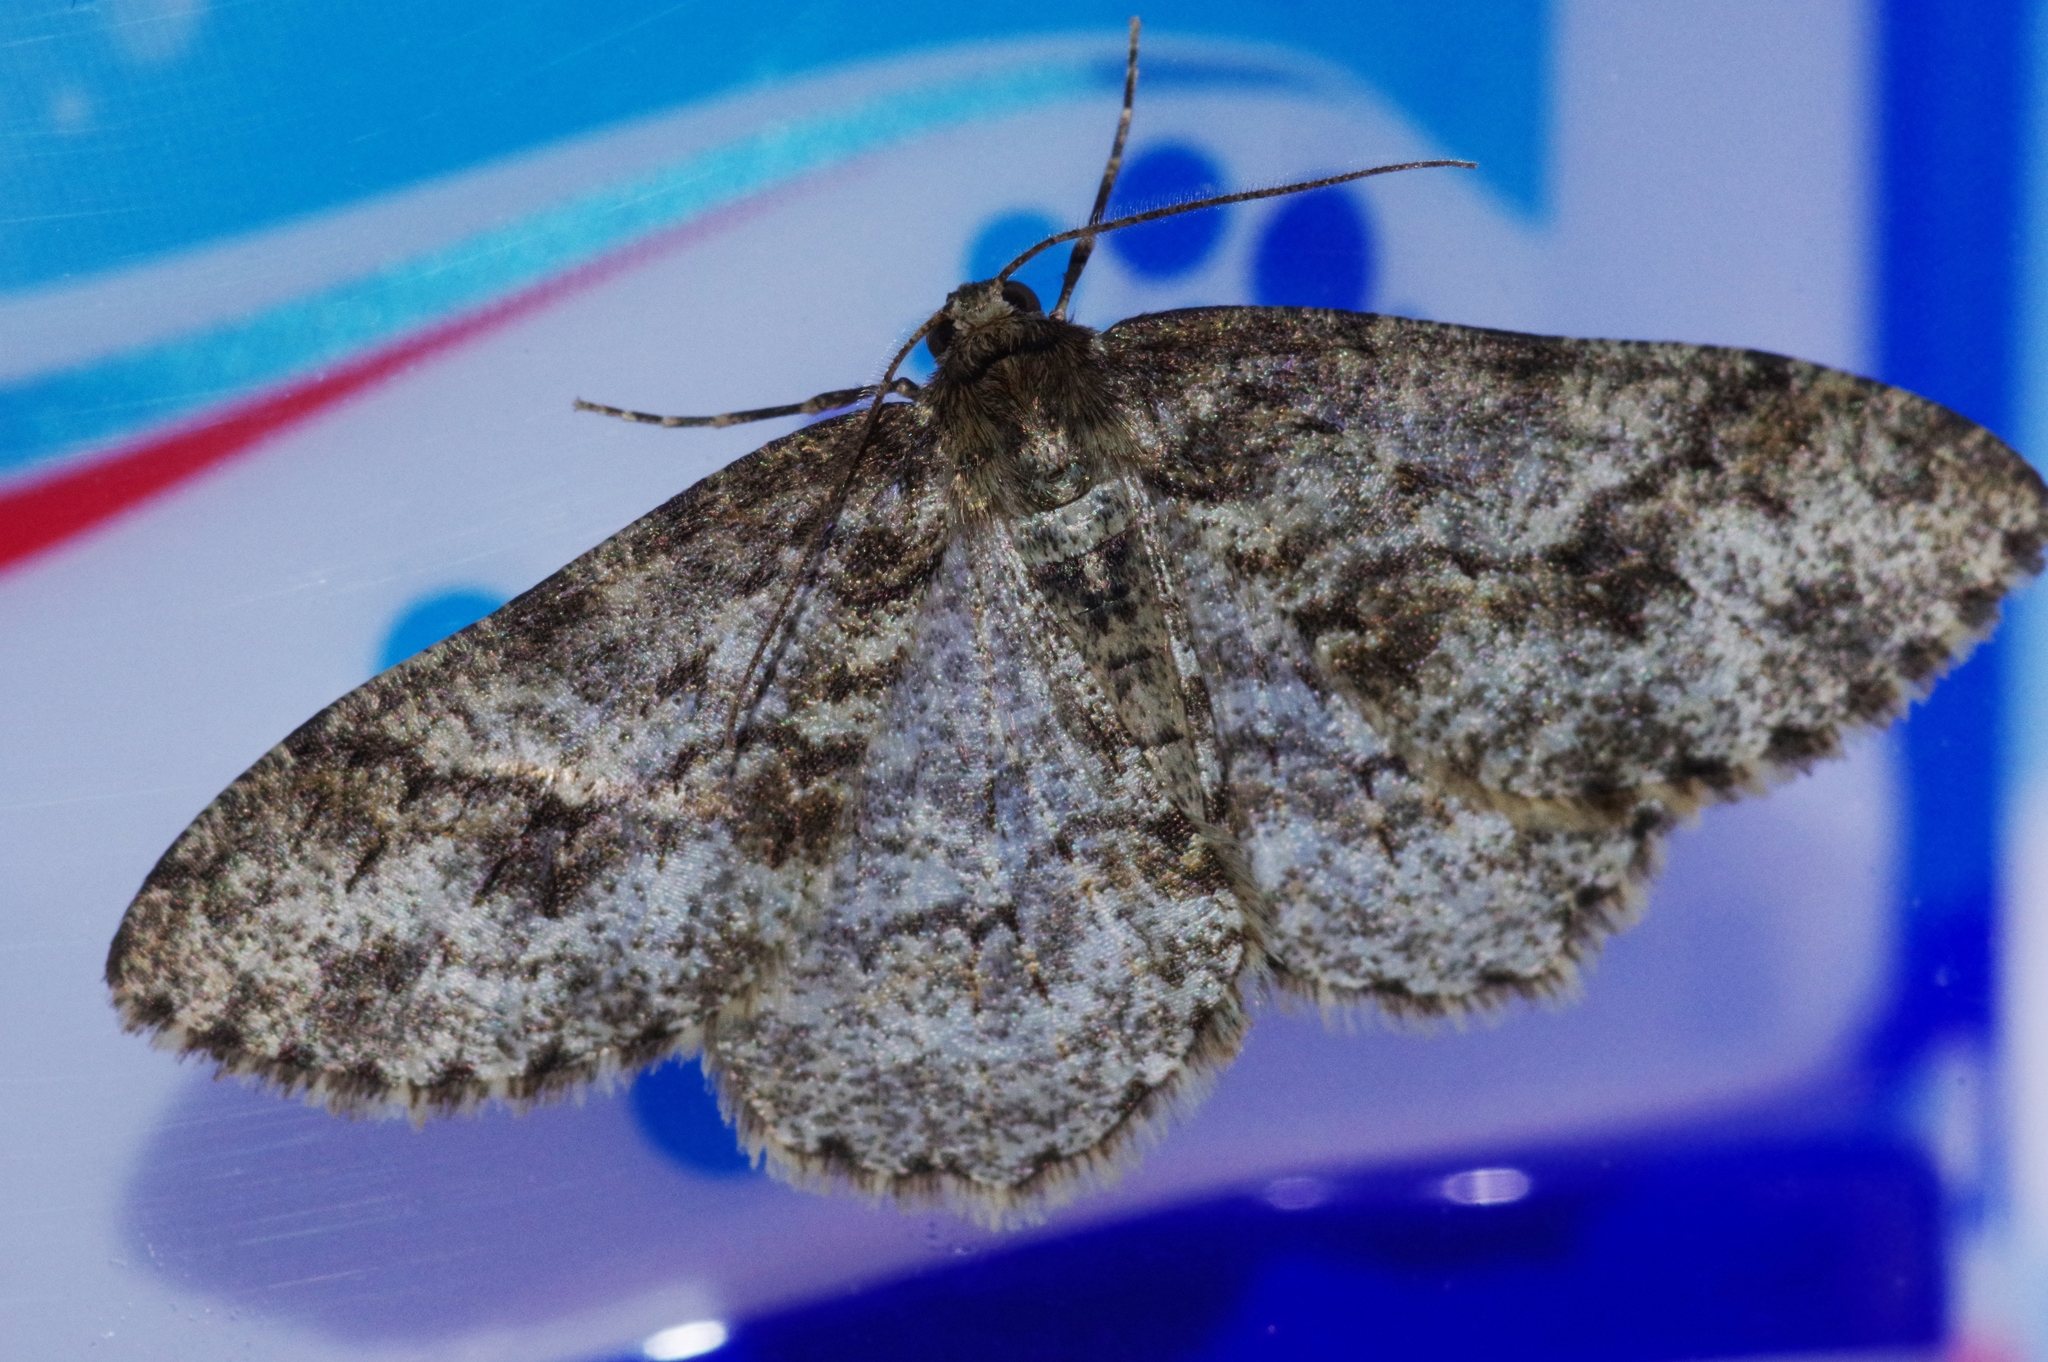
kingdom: Animalia
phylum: Arthropoda
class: Insecta
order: Lepidoptera
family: Geometridae
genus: Ectropis
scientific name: Ectropis crepuscularia
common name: Engrailed
